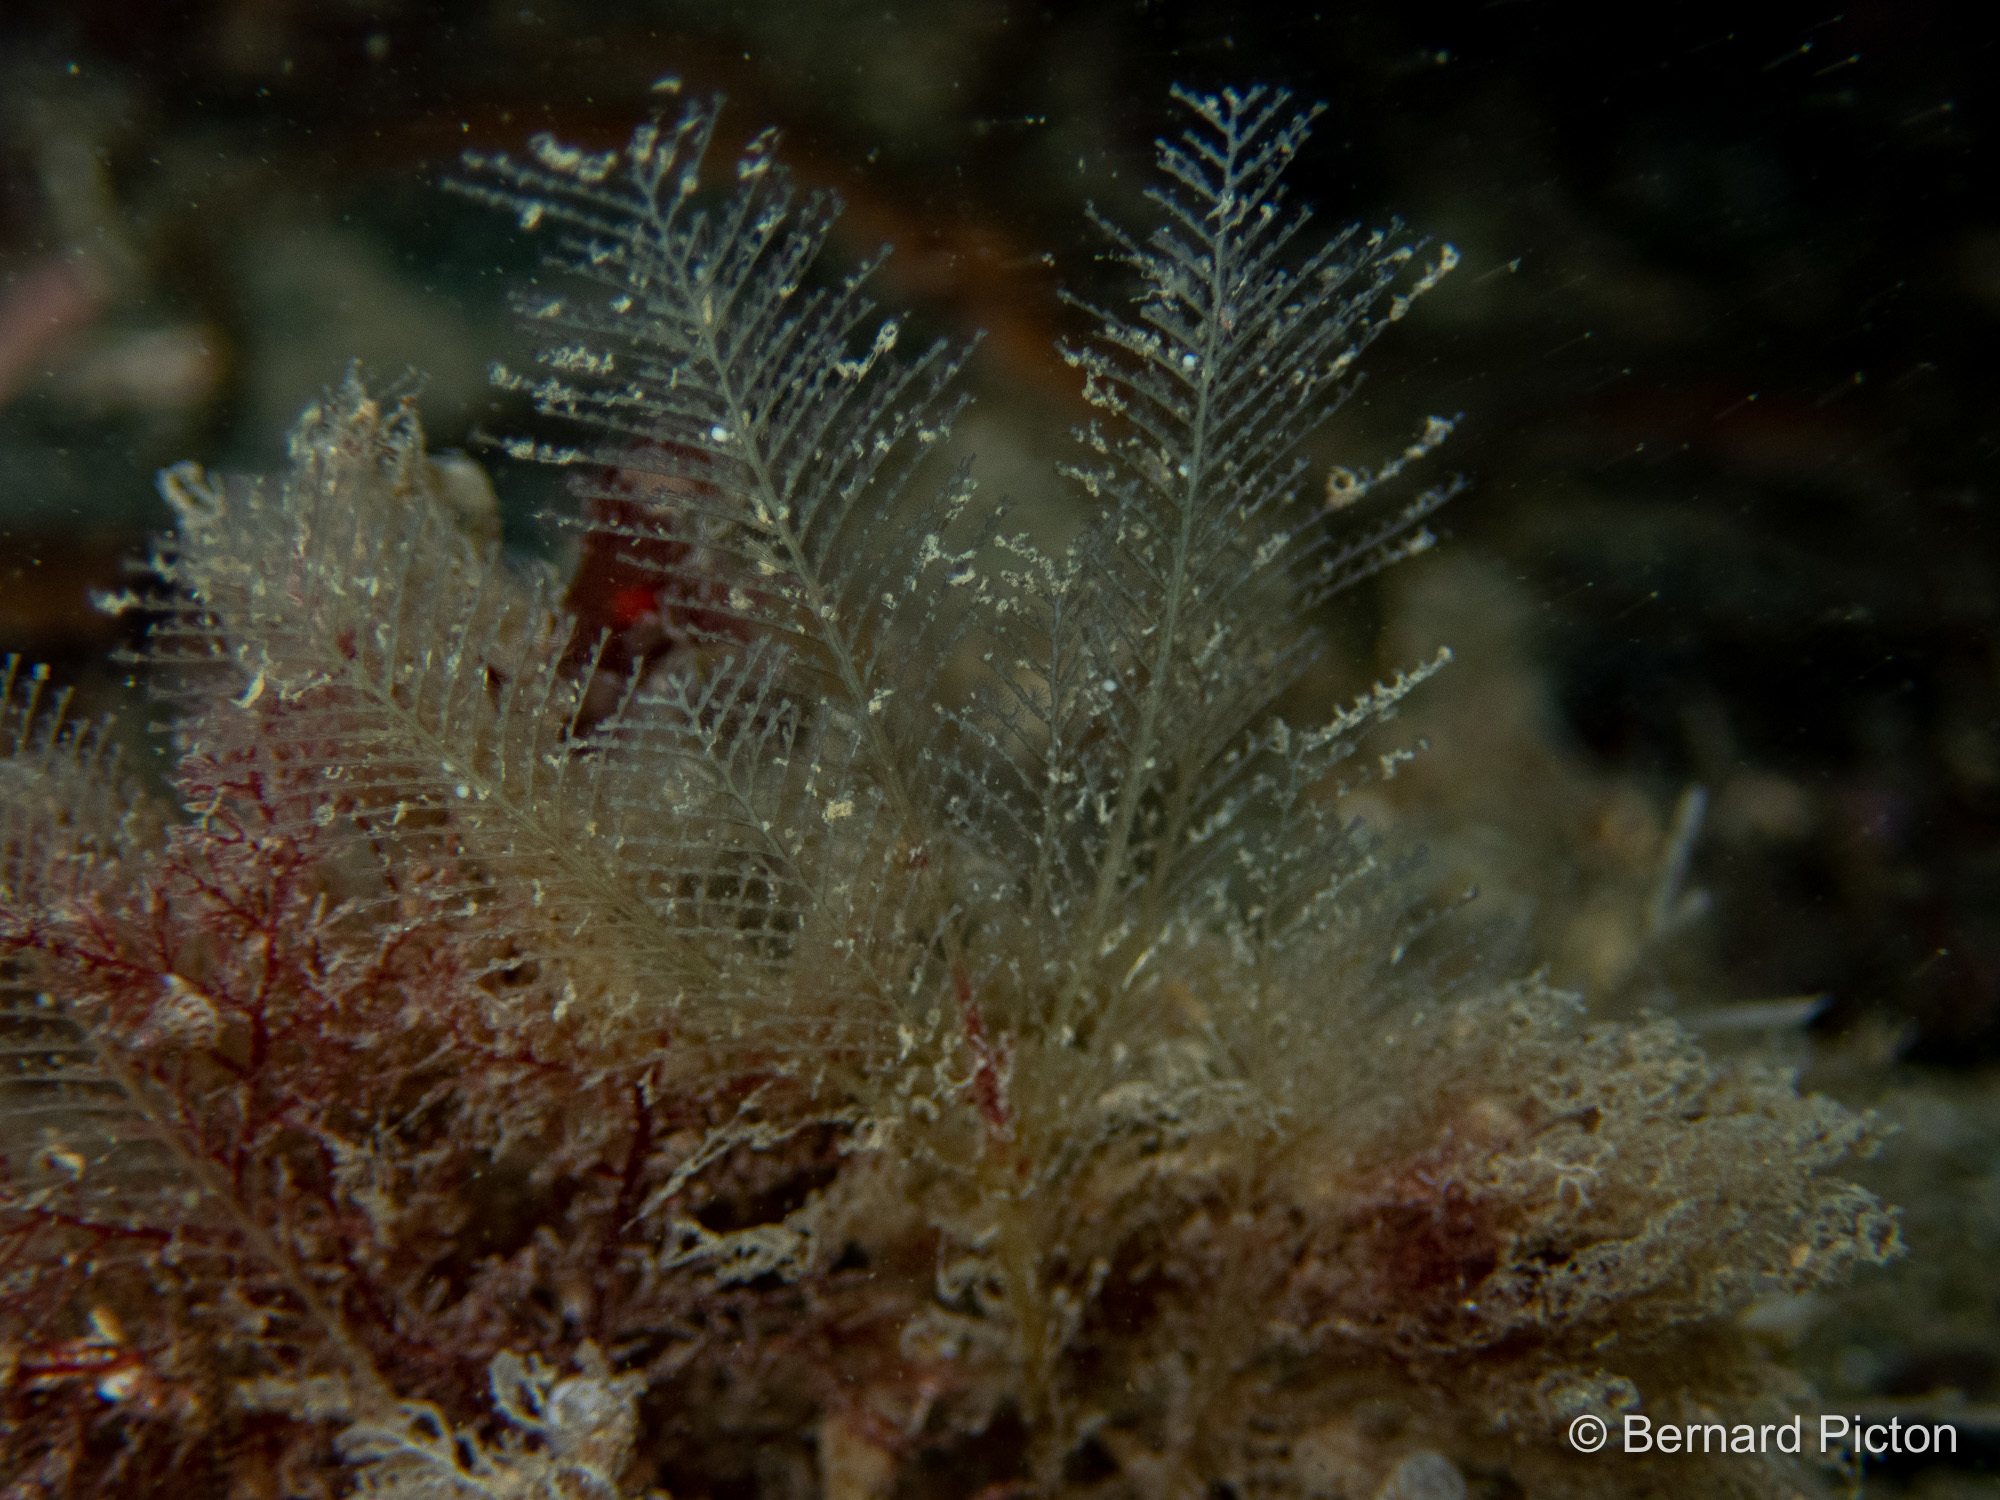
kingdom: Animalia
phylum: Cnidaria
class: Hydrozoa
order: Leptothecata
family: Schizotrichidae
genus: Schizotricha
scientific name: Schizotricha frutescens
